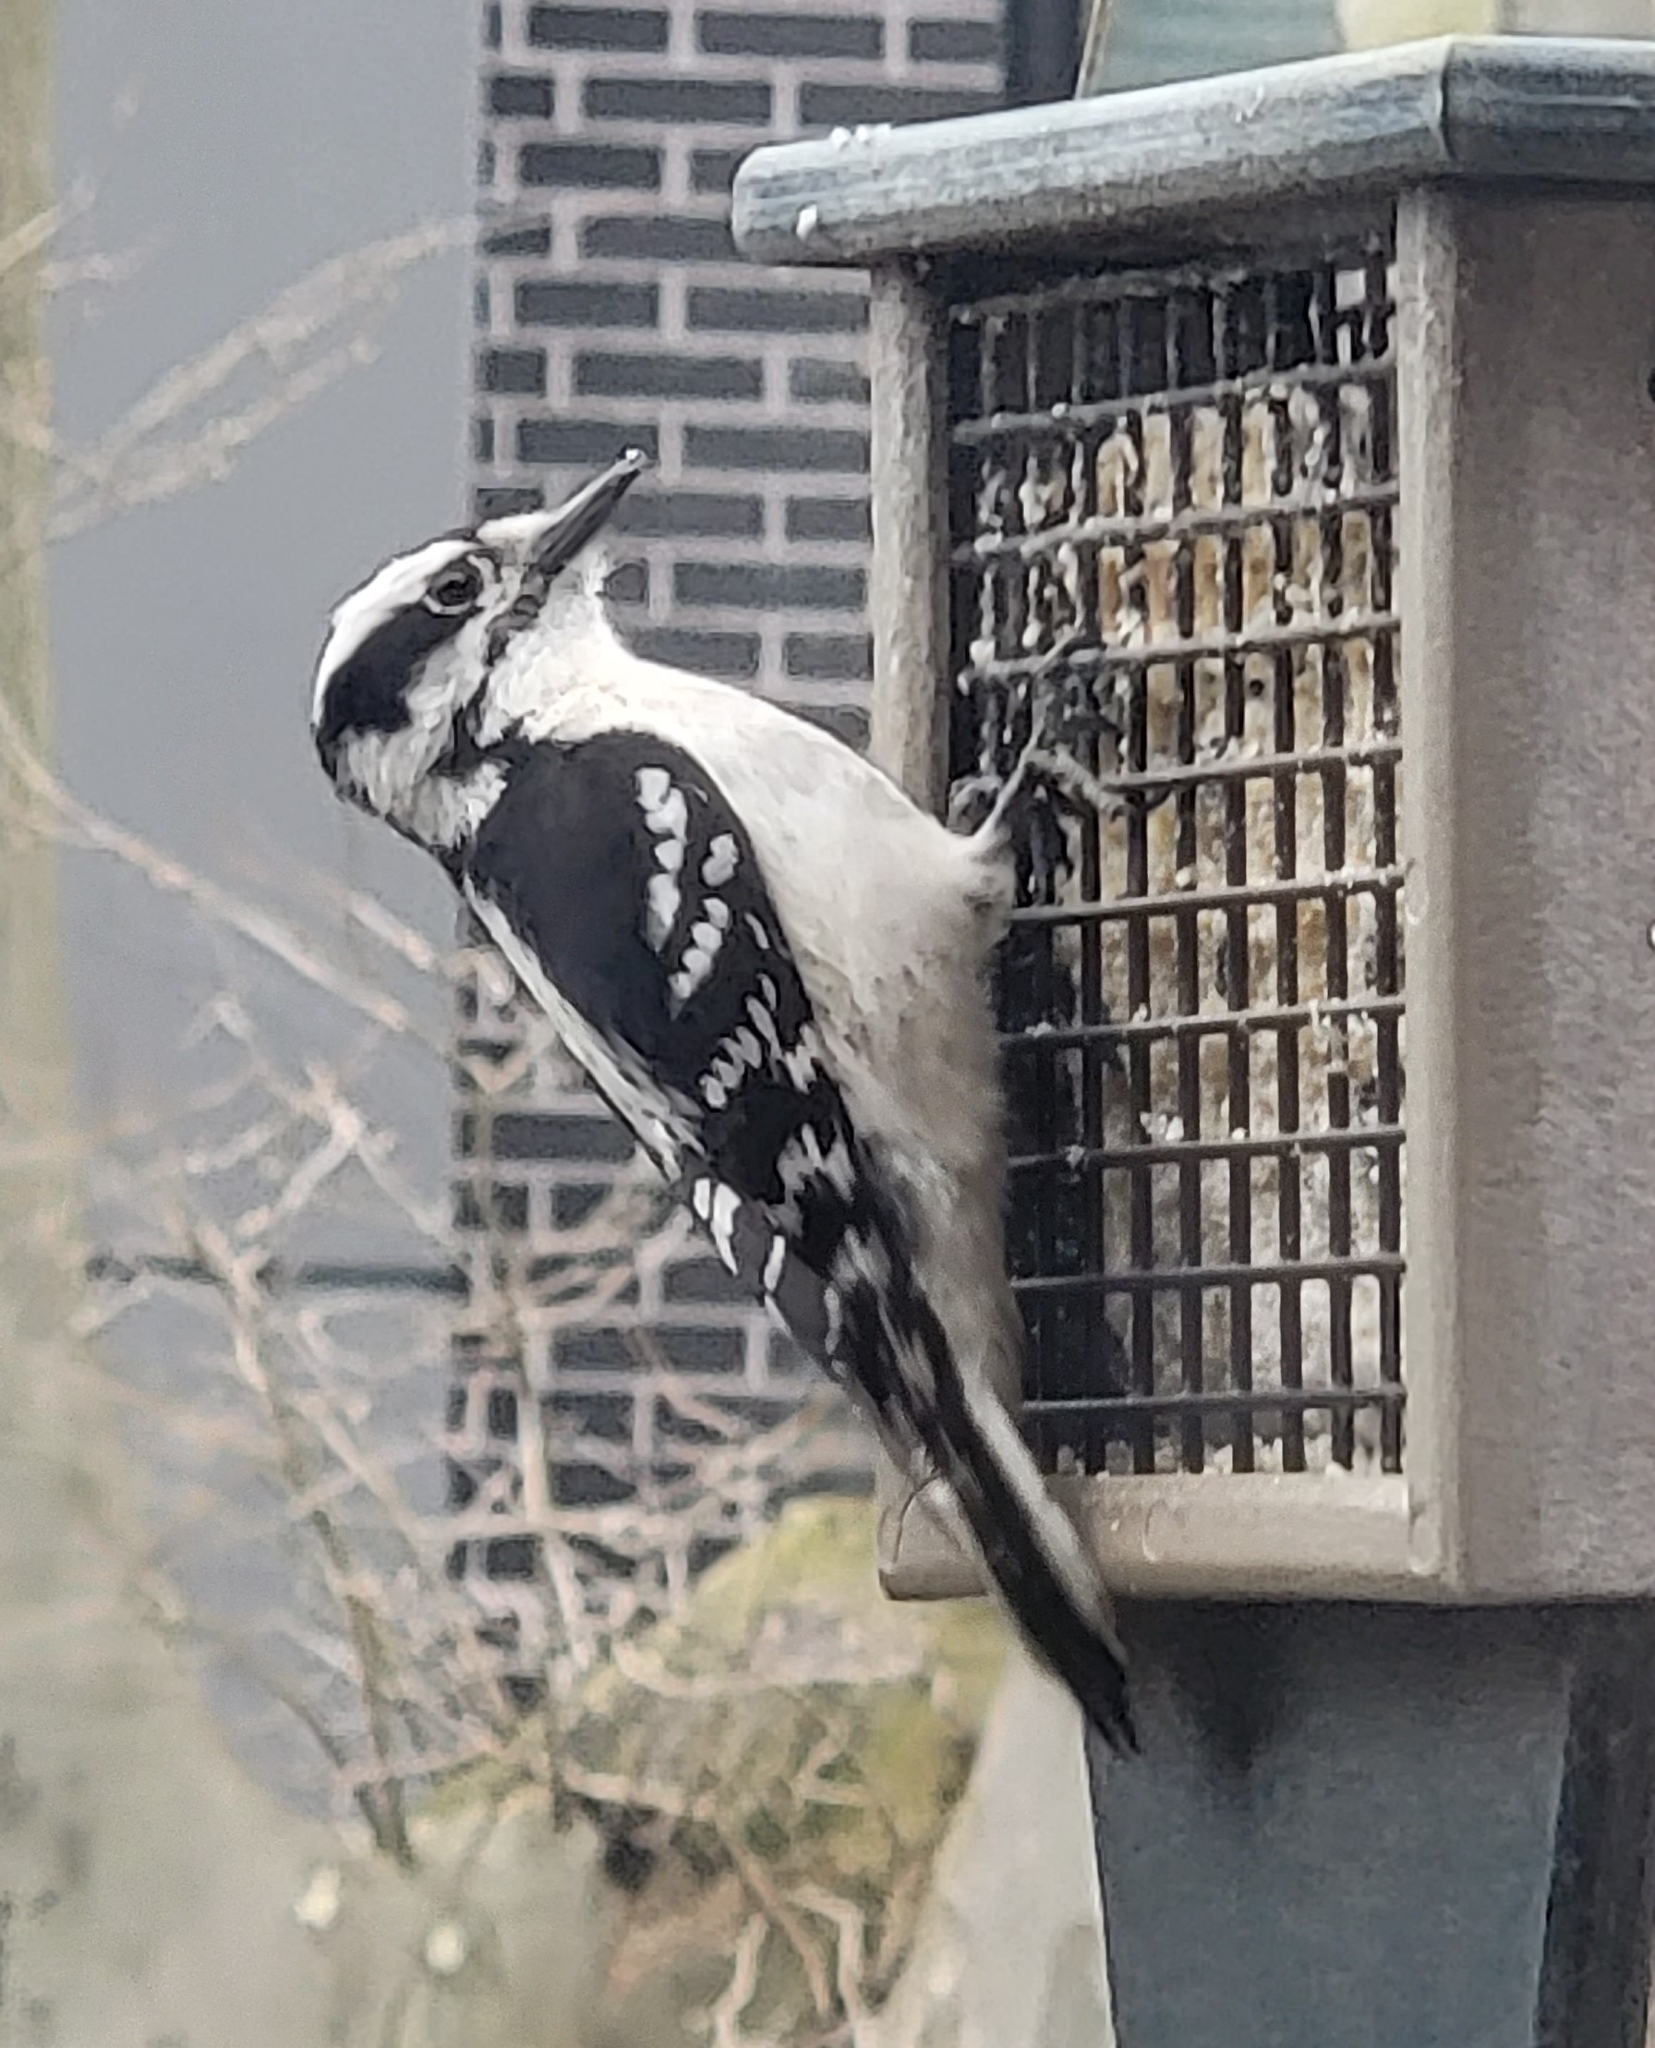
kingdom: Animalia
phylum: Chordata
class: Aves
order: Piciformes
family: Picidae
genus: Dryobates
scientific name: Dryobates pubescens
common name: Downy woodpecker
